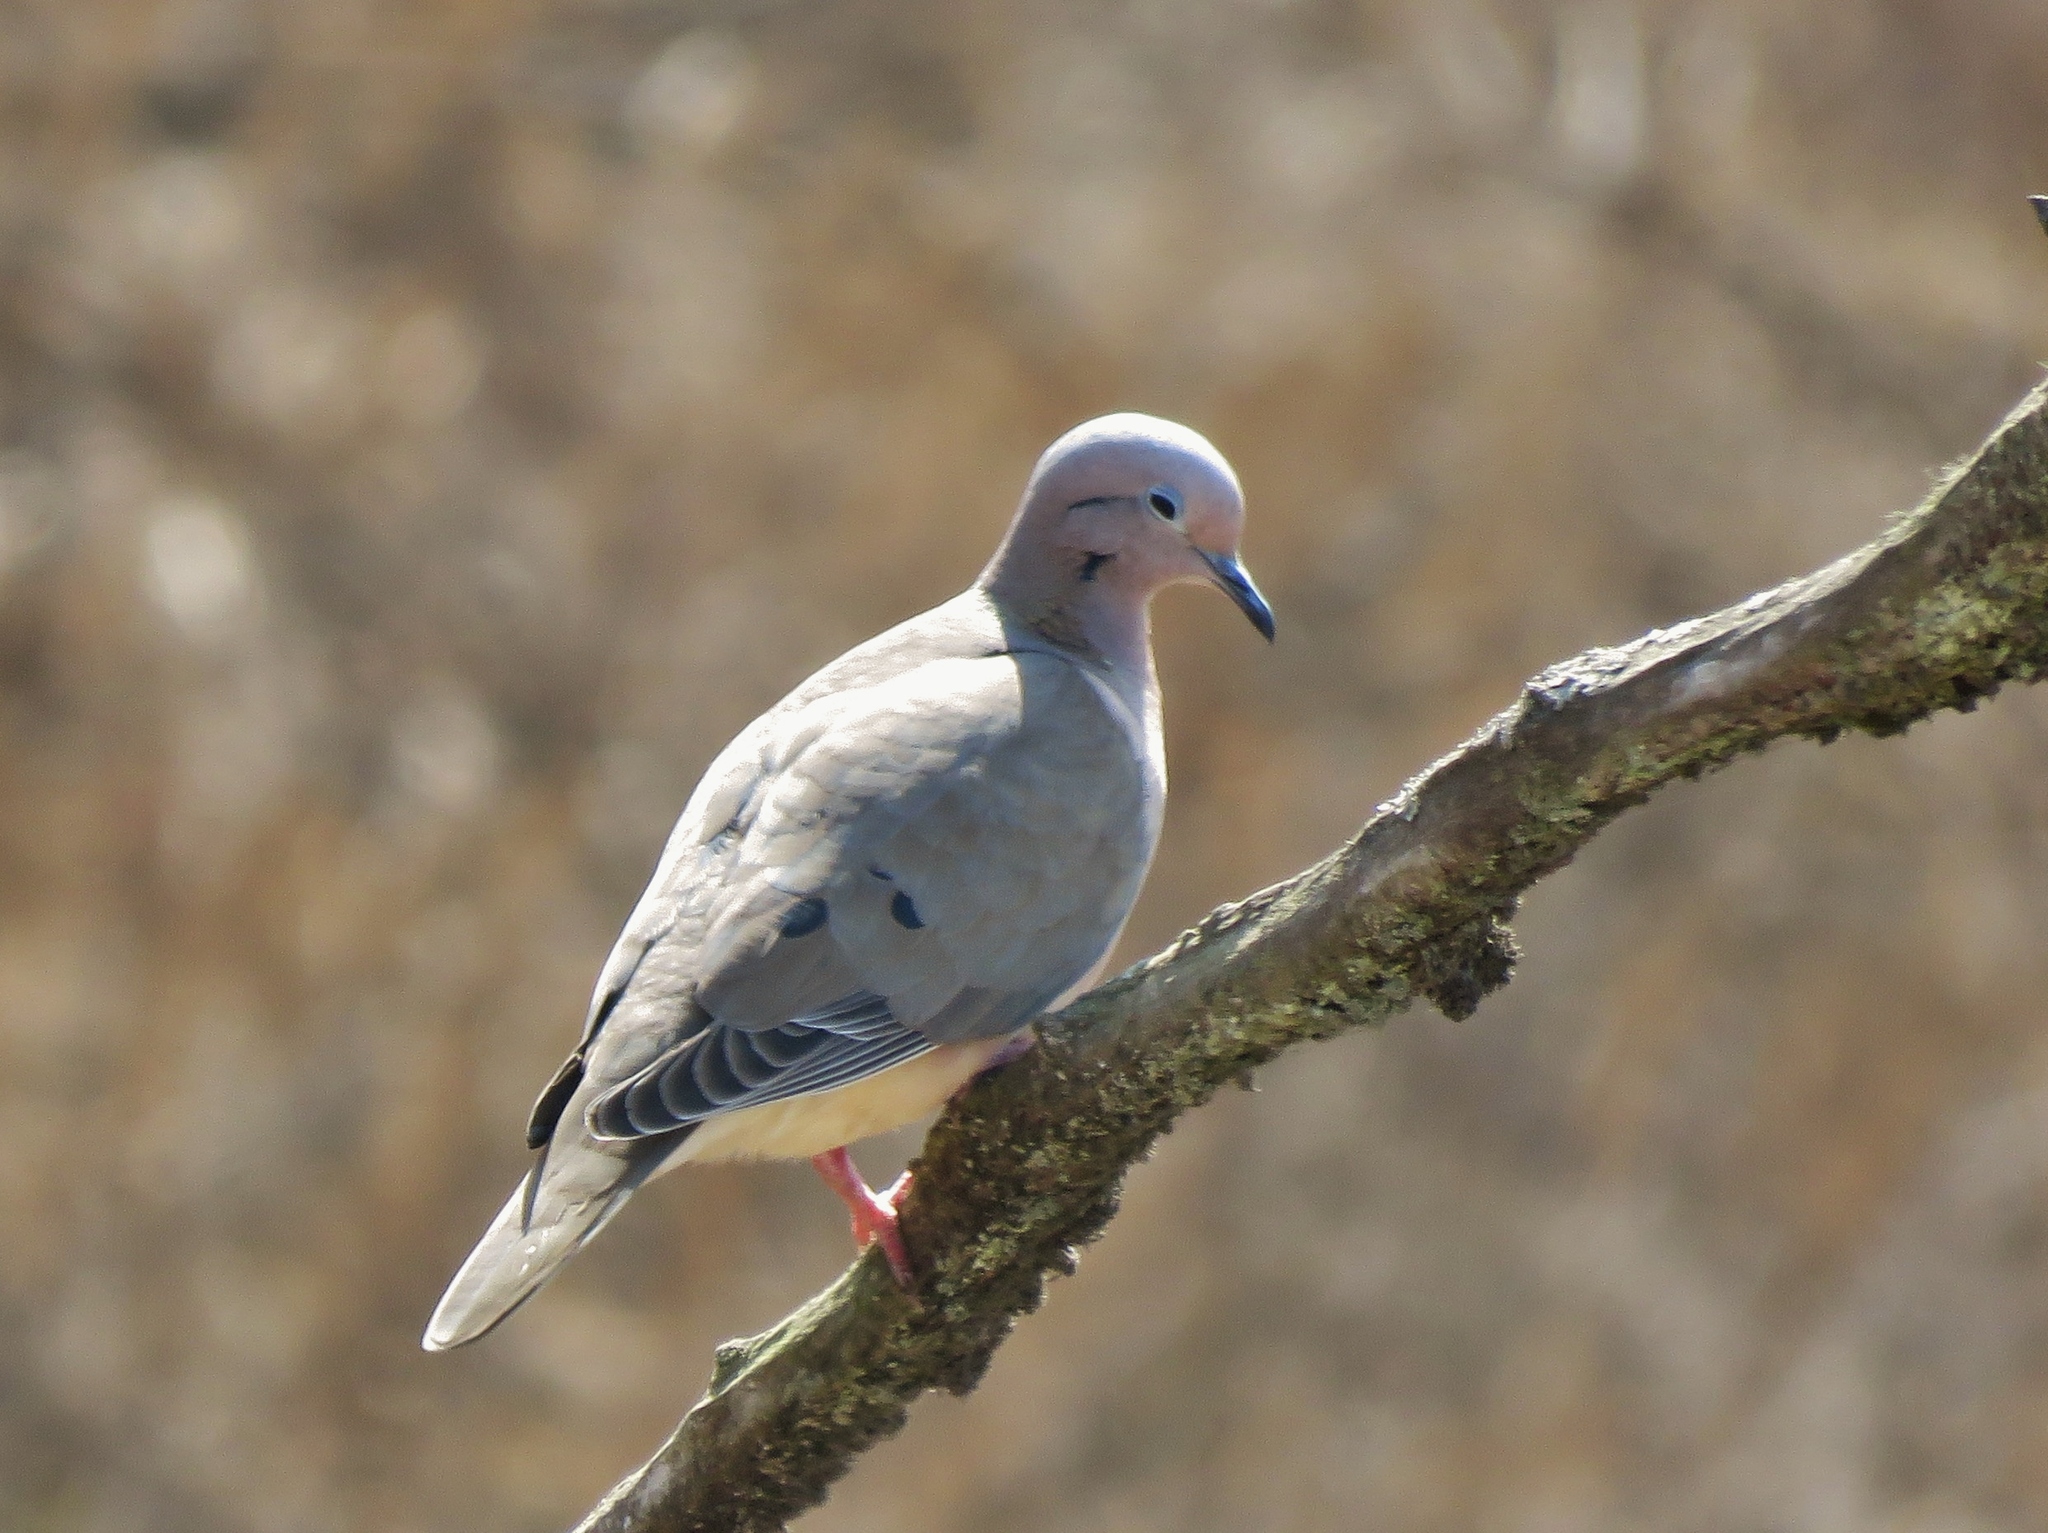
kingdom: Animalia
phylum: Chordata
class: Aves
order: Columbiformes
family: Columbidae
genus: Zenaida
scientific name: Zenaida auriculata
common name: Eared dove
